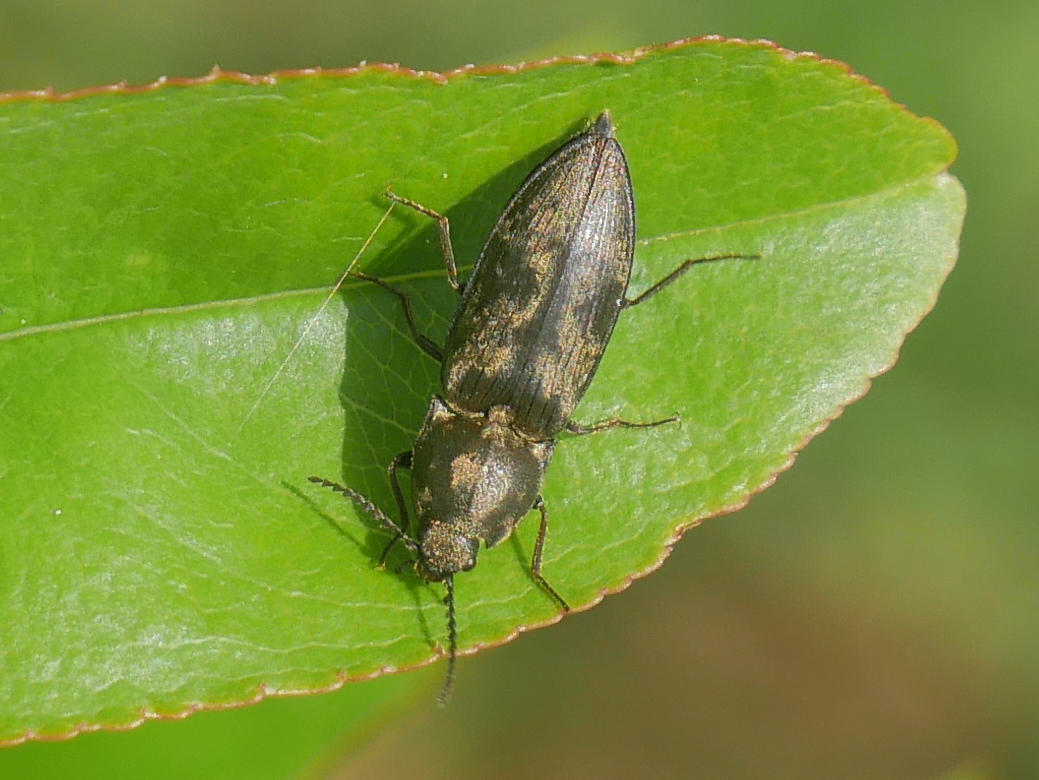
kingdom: Animalia
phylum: Arthropoda
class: Insecta
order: Coleoptera
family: Elateridae
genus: Prosternon
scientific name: Prosternon tessellatum
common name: Chequered click beetle
